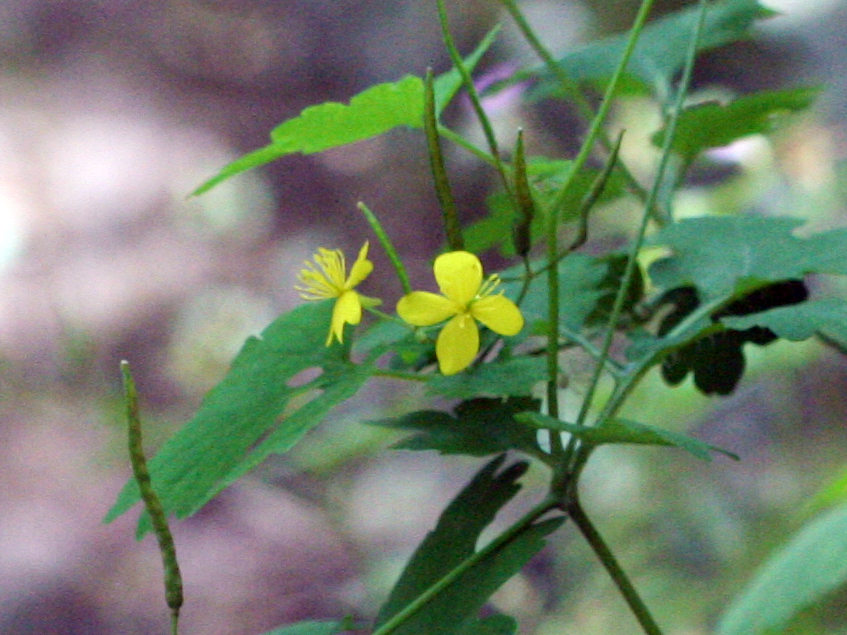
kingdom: Plantae
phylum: Tracheophyta
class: Magnoliopsida
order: Ranunculales
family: Papaveraceae
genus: Chelidonium
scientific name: Chelidonium majus
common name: Greater celandine
